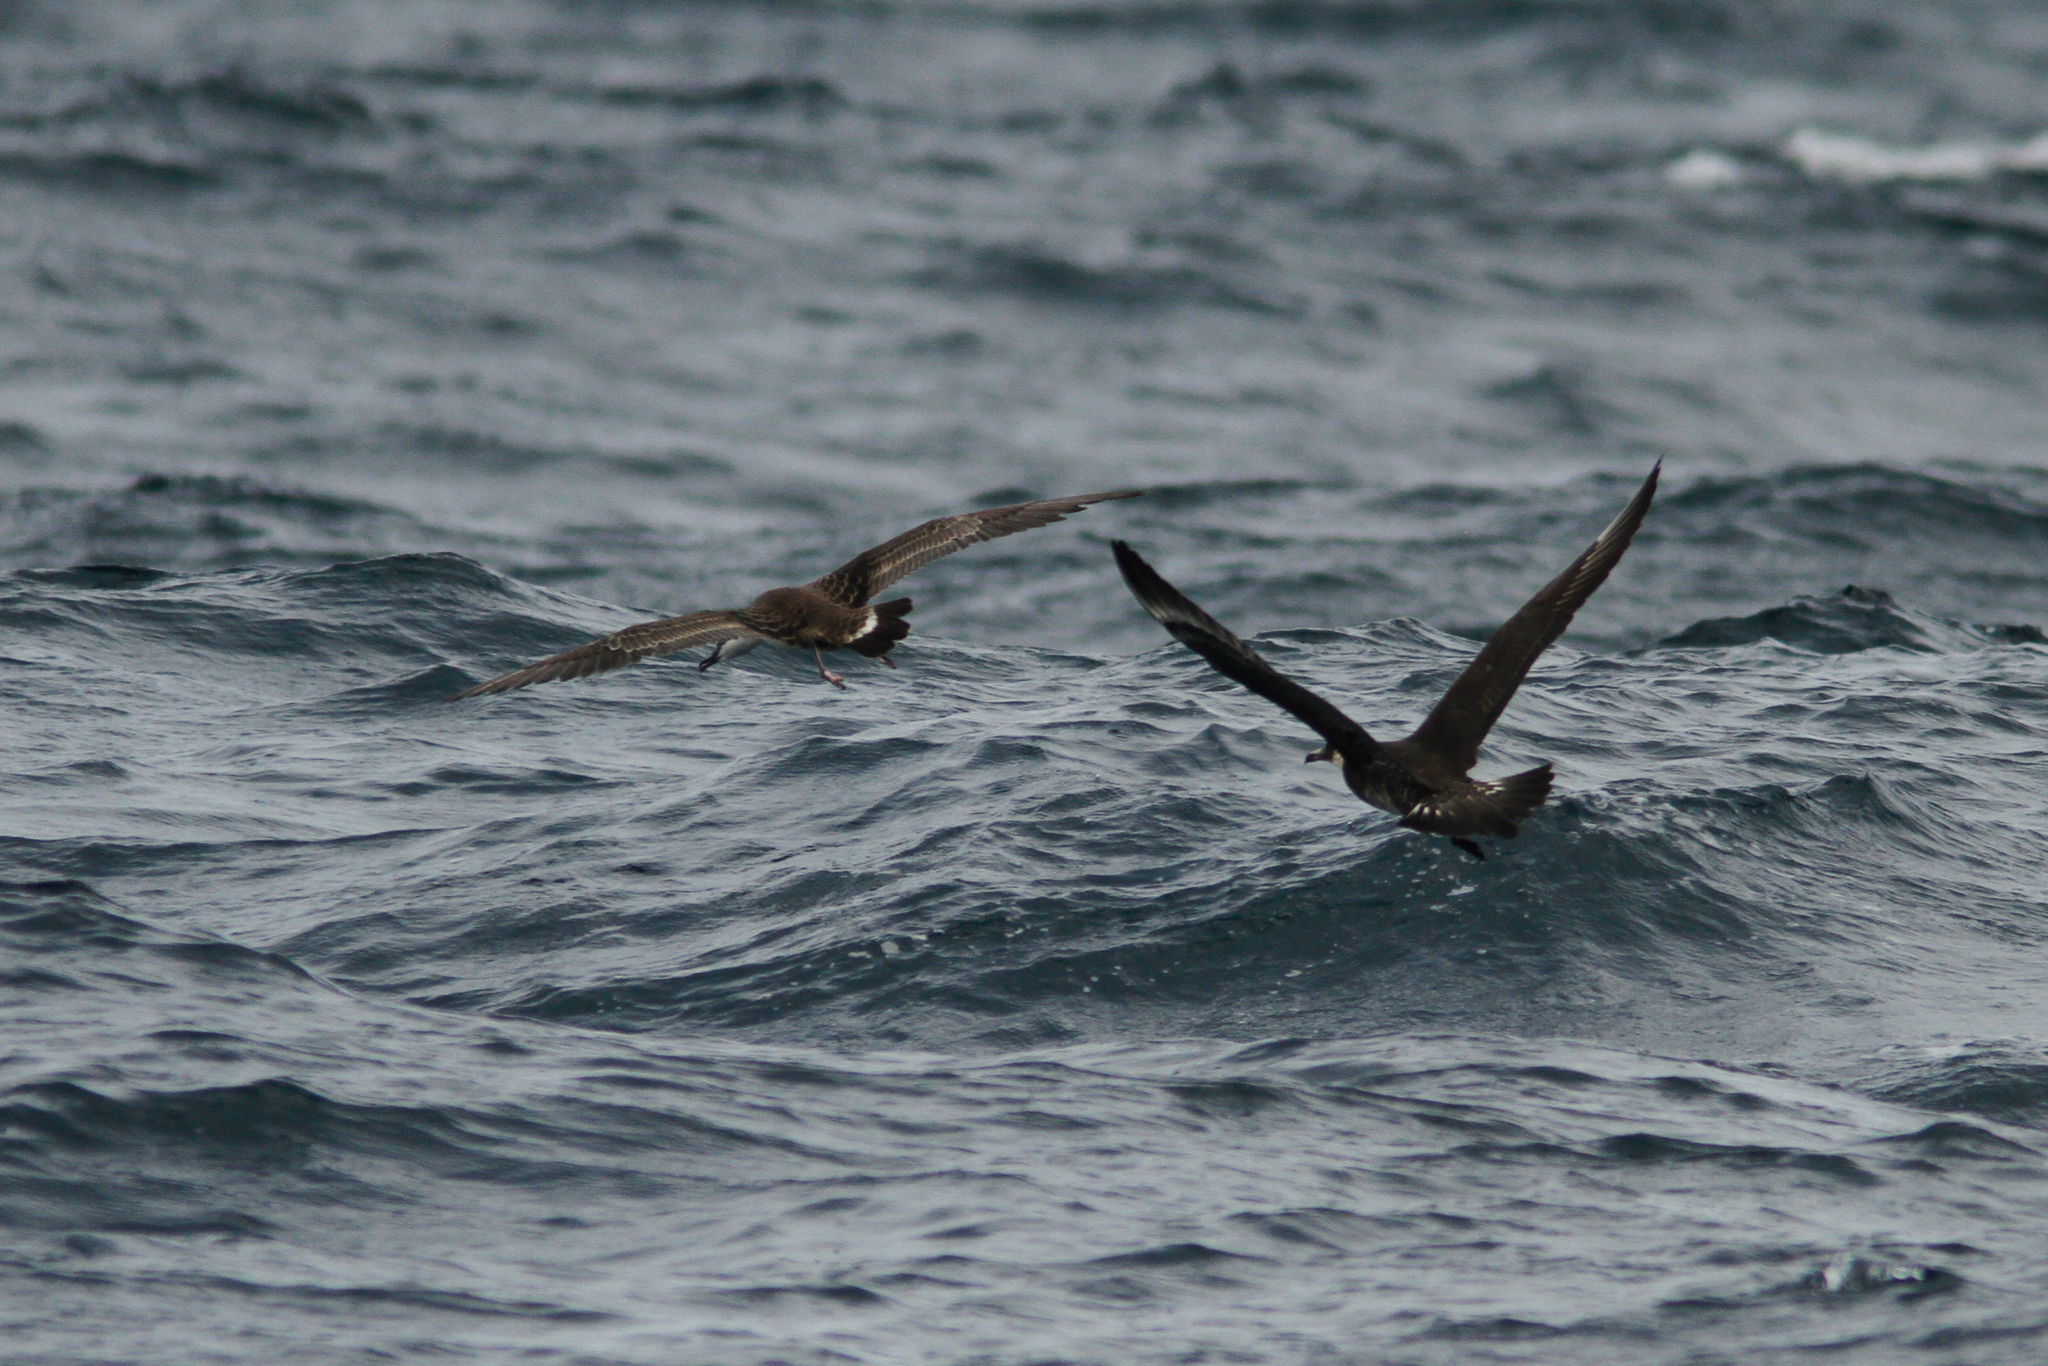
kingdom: Animalia
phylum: Chordata
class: Aves
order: Procellariiformes
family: Procellariidae
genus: Puffinus
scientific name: Puffinus gravis
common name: Great shearwater
